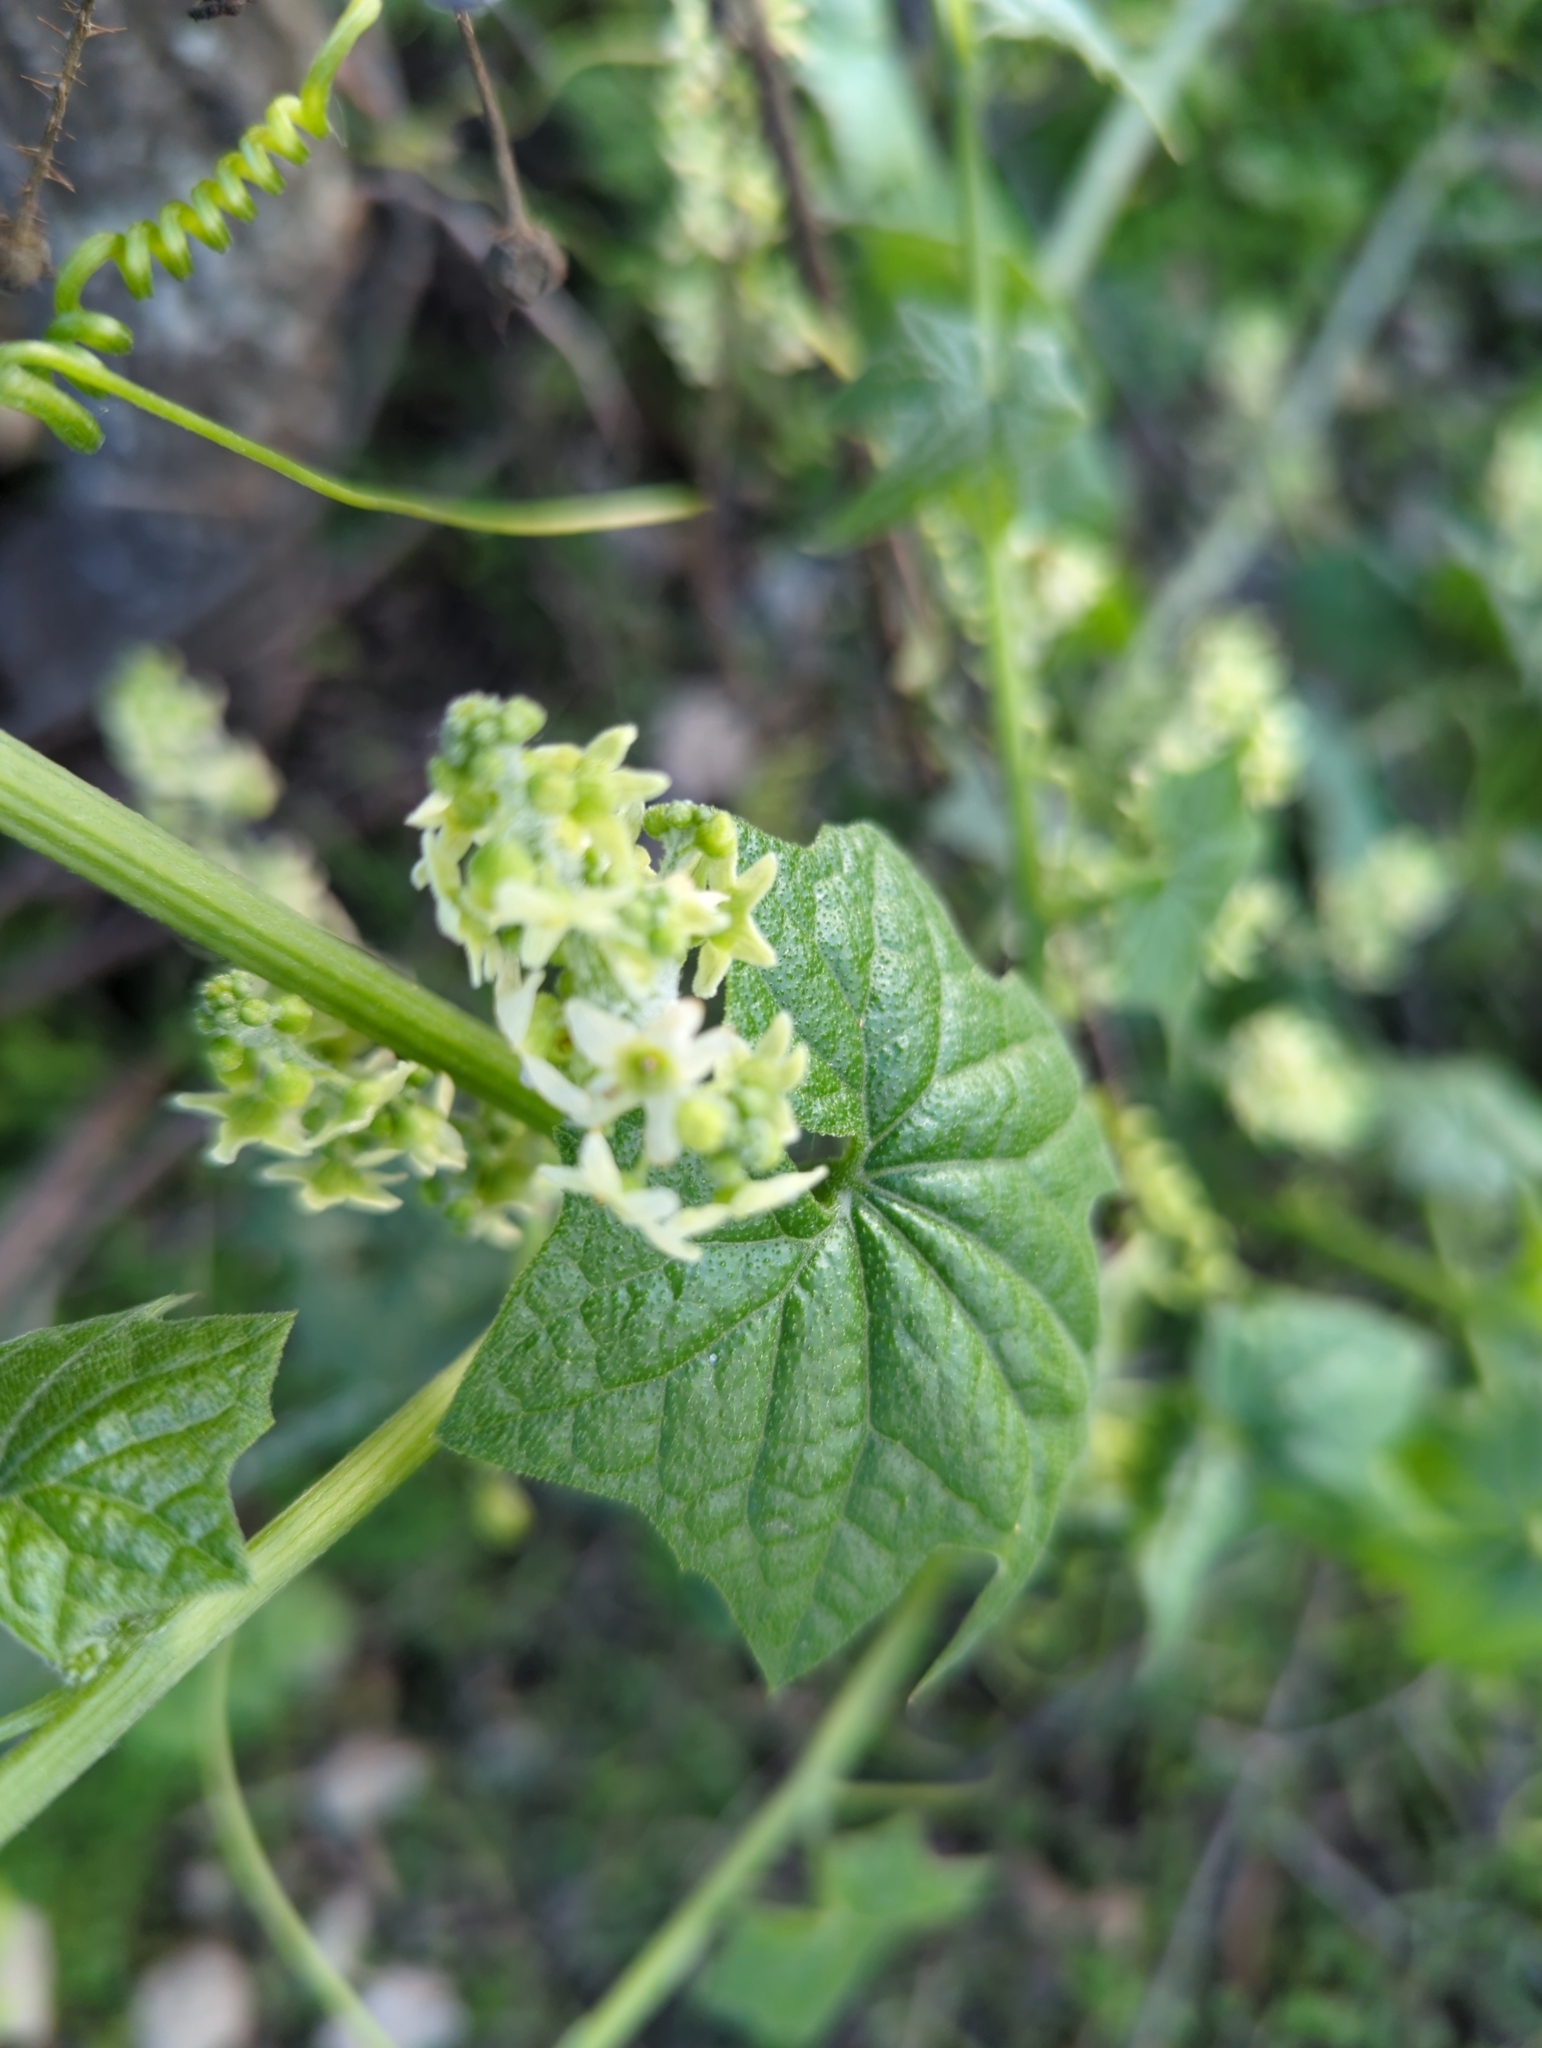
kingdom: Plantae
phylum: Tracheophyta
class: Magnoliopsida
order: Cucurbitales
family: Cucurbitaceae
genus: Marah
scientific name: Marah fabacea
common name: California manroot
